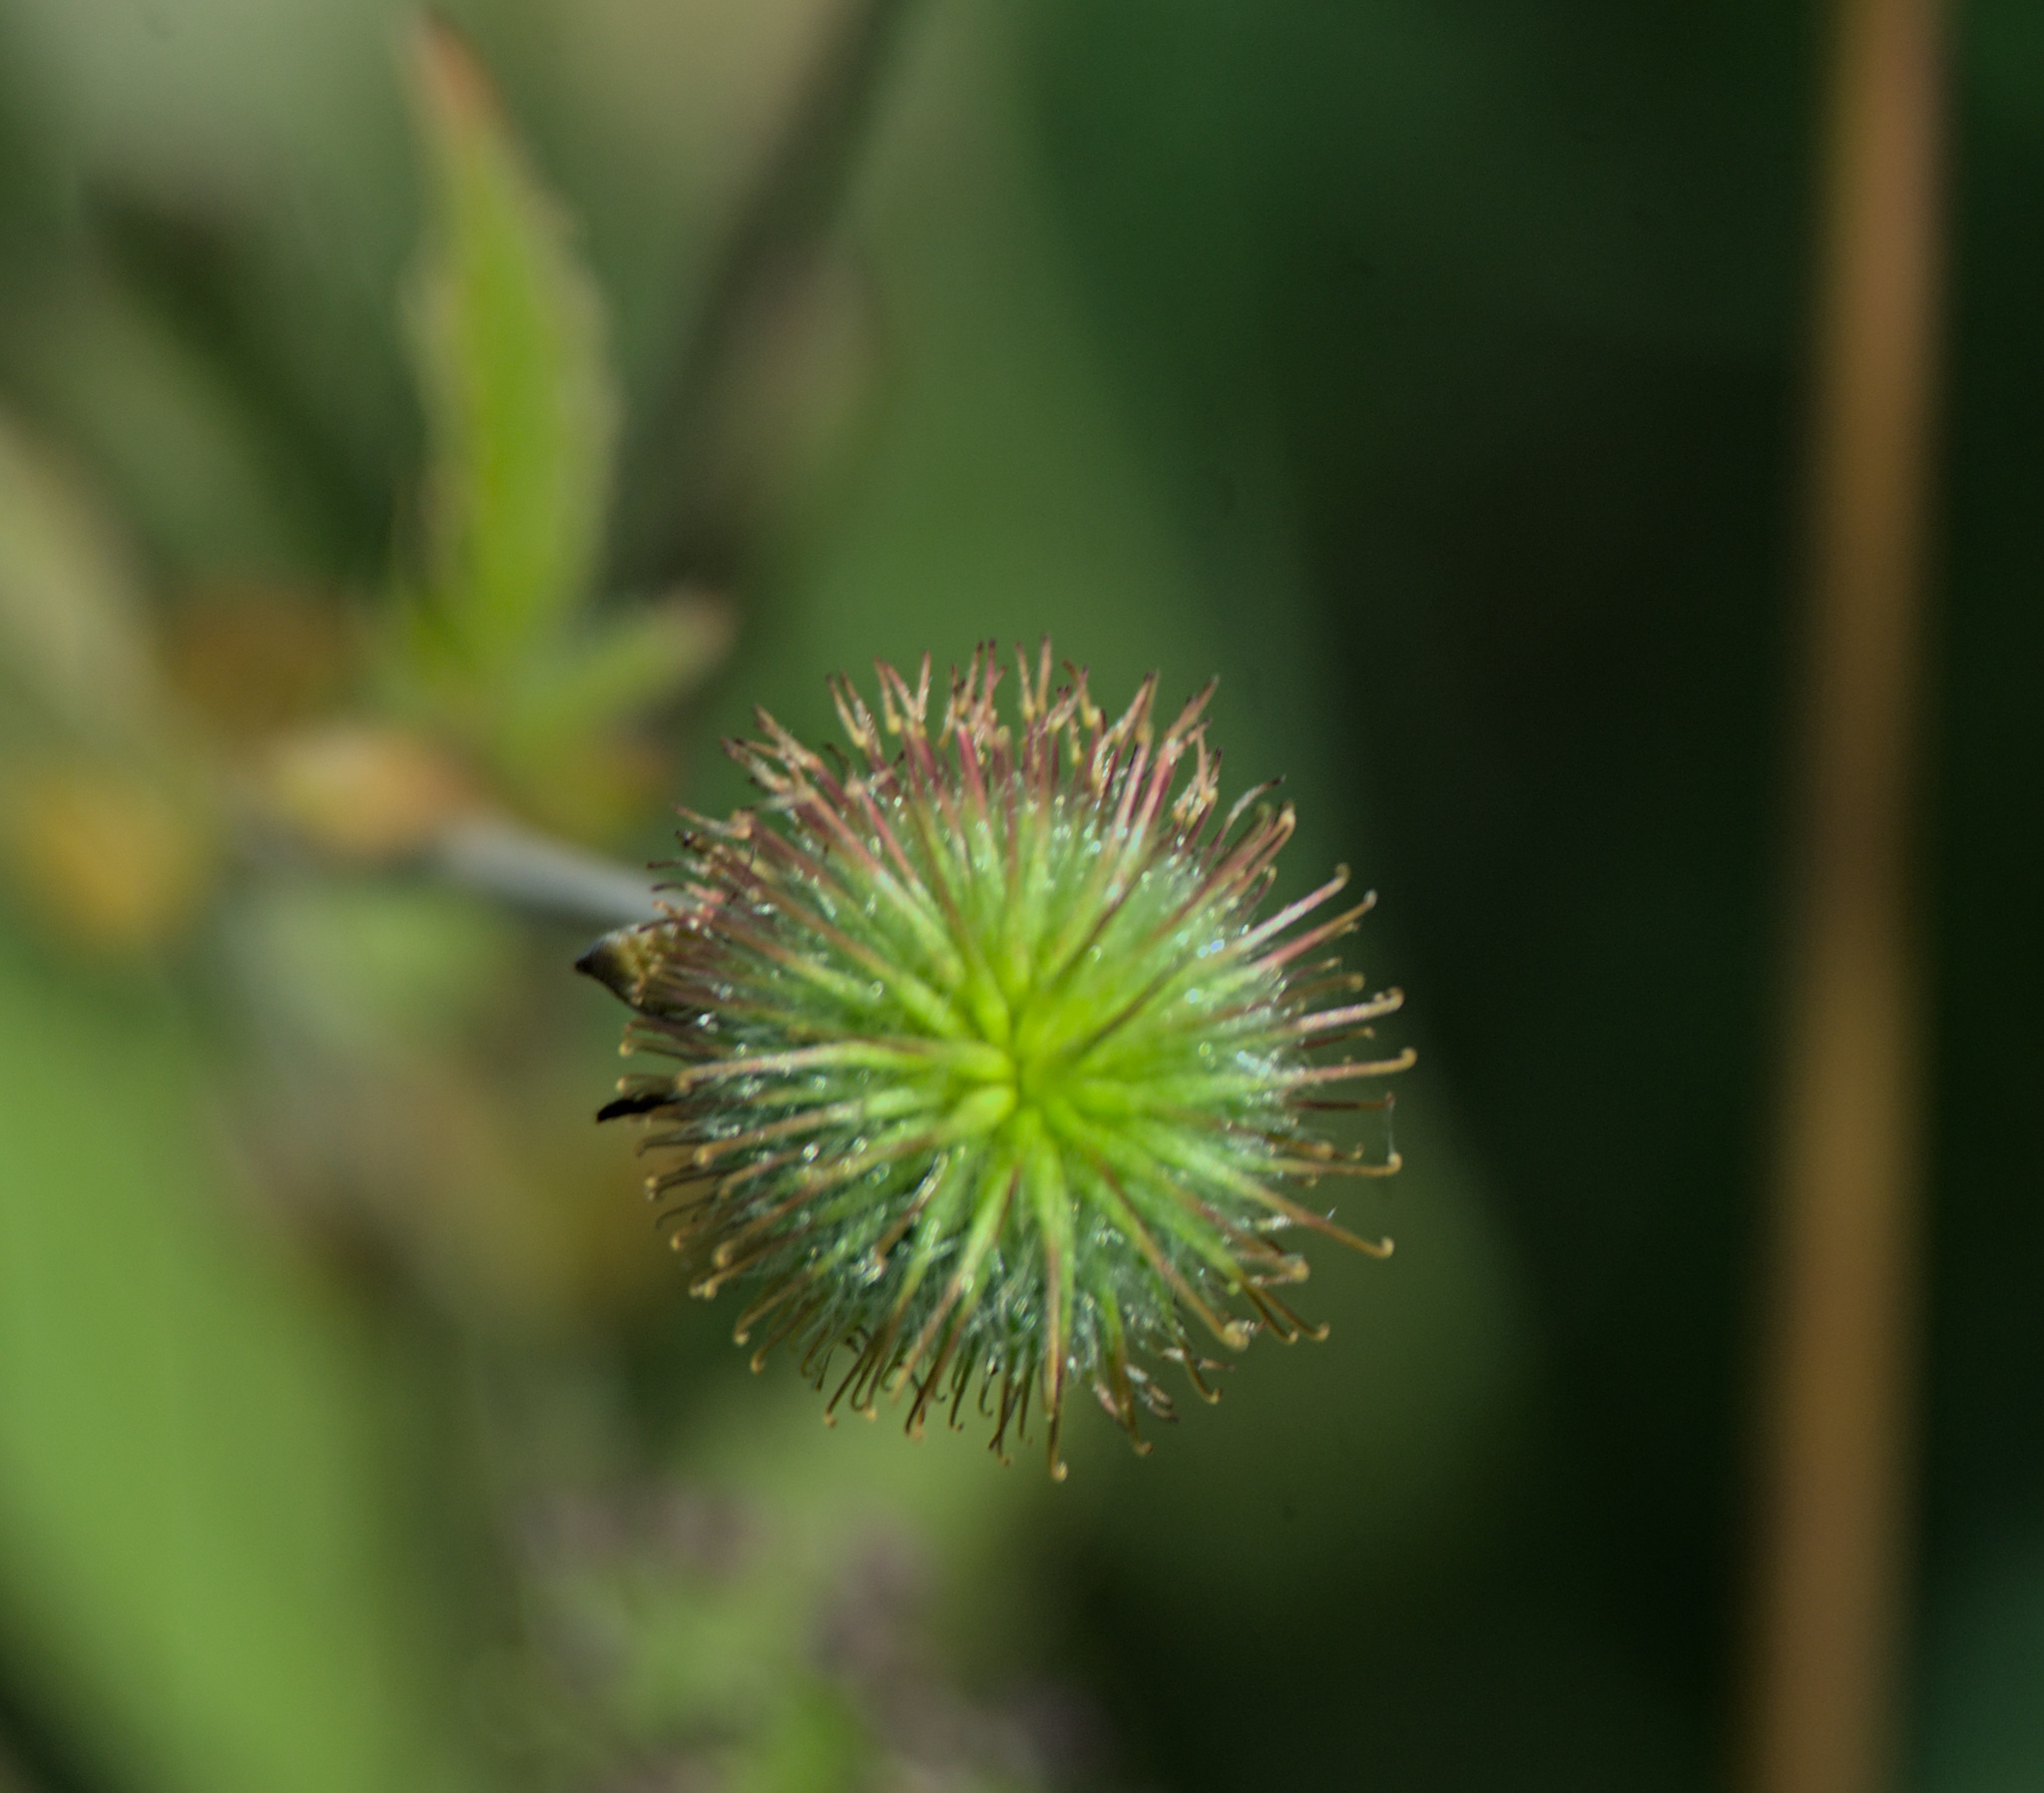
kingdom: Plantae
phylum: Tracheophyta
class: Magnoliopsida
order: Rosales
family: Rosaceae
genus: Geum
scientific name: Geum aleppicum
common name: Yellow avens
